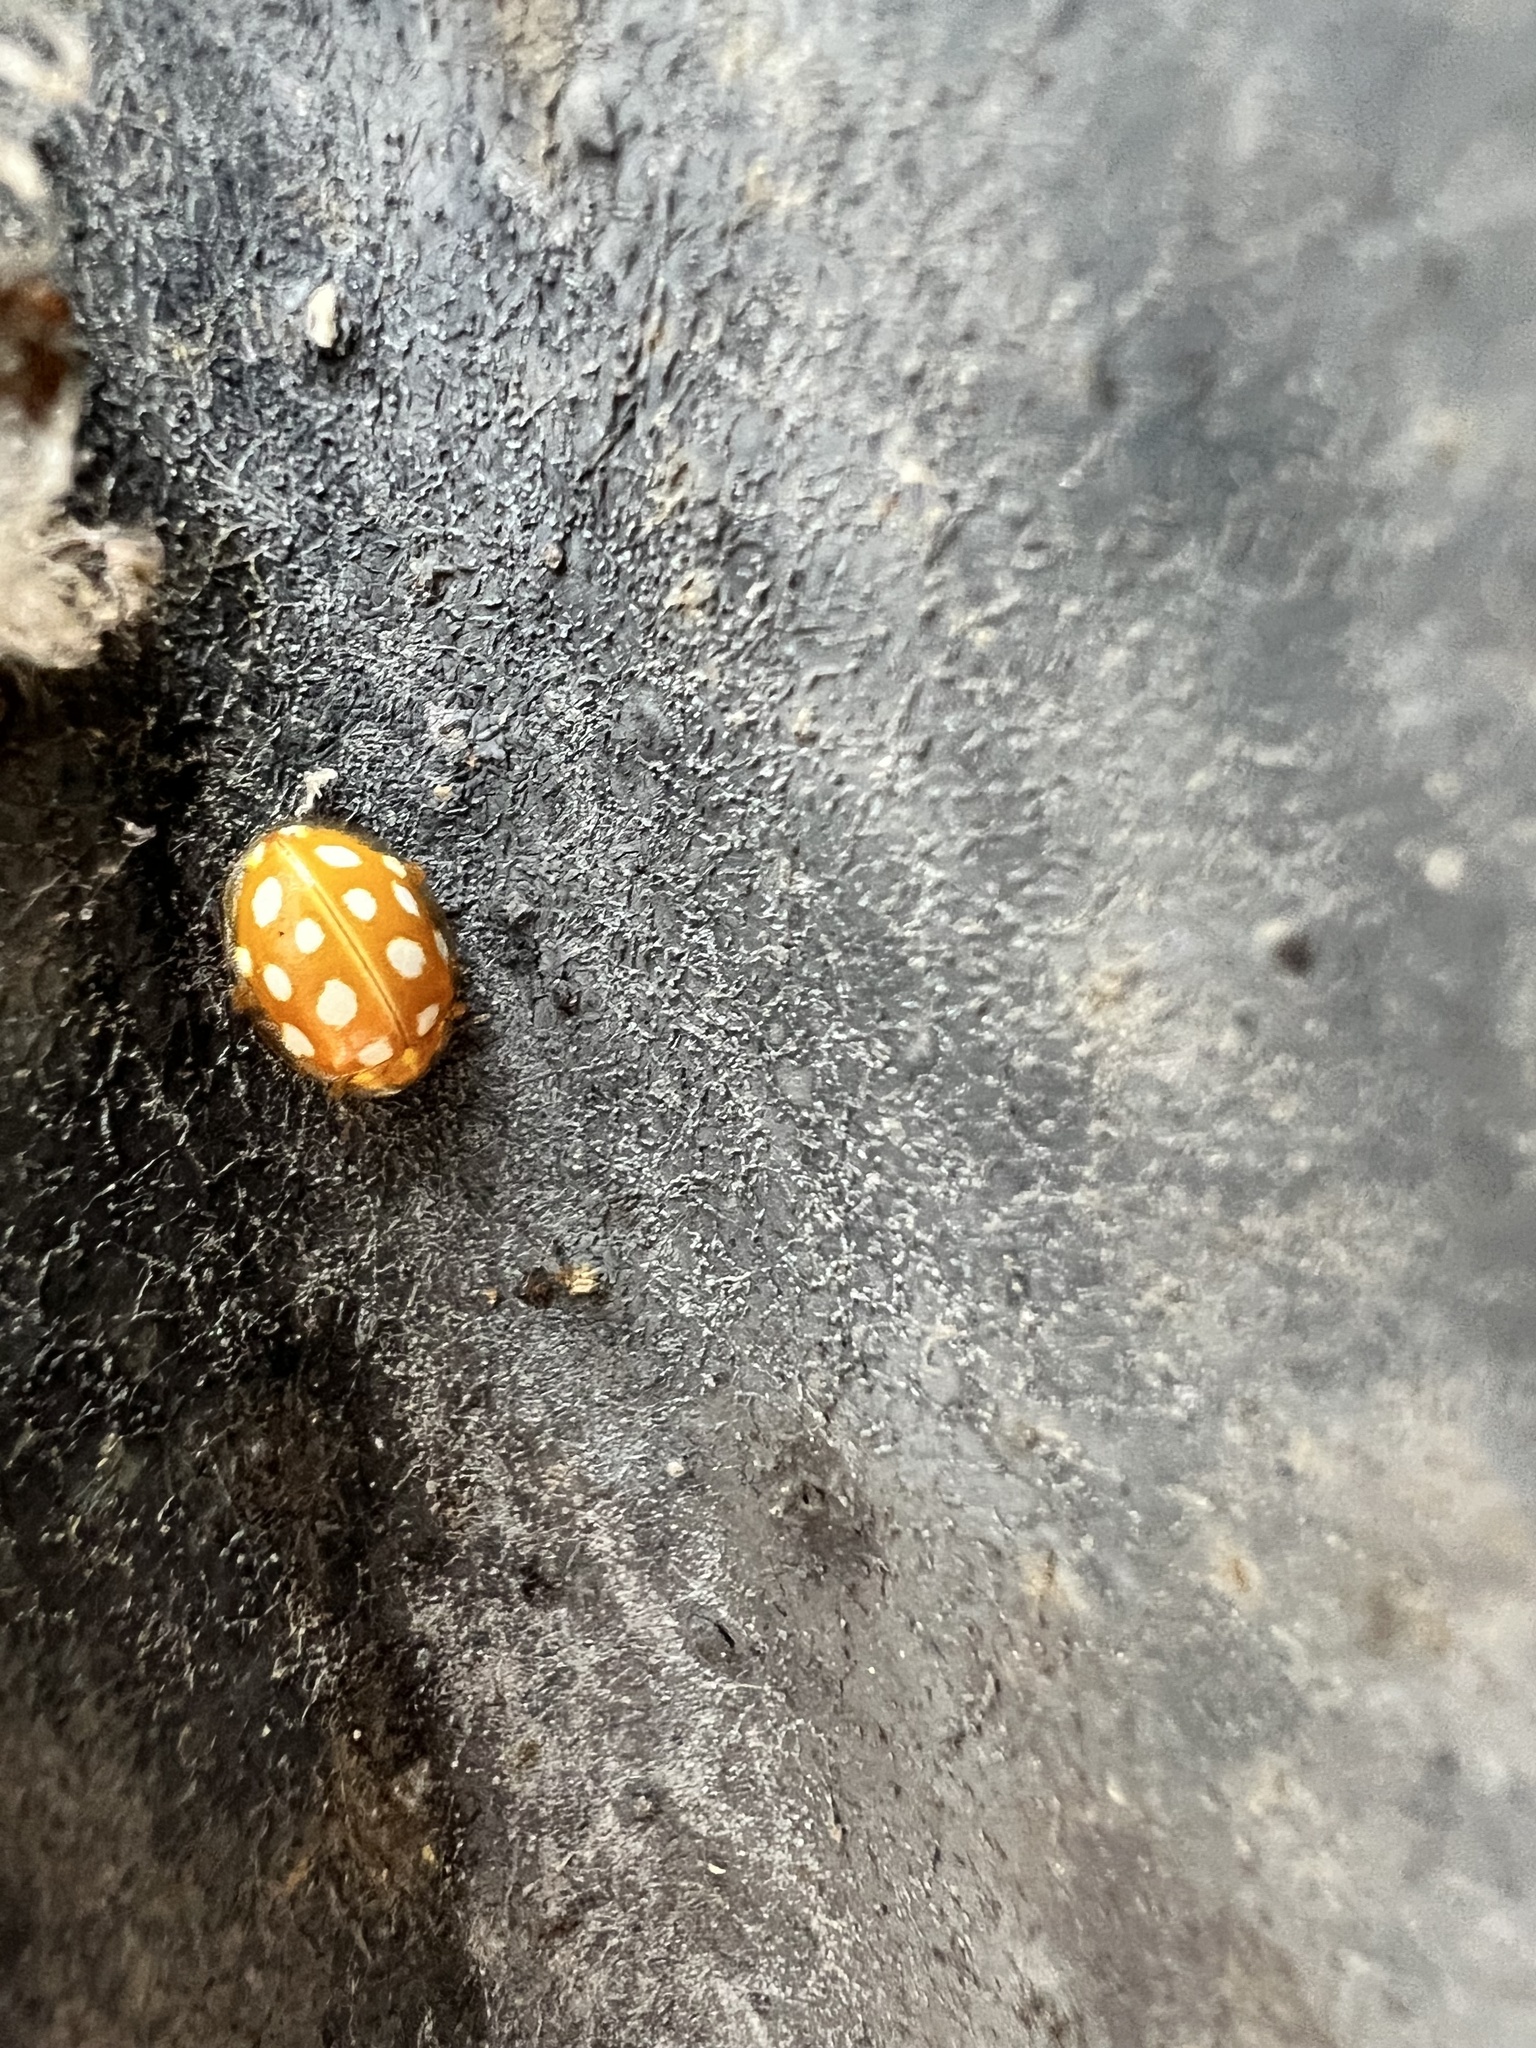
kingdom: Animalia
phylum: Arthropoda
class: Insecta
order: Coleoptera
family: Coccinellidae
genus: Halyzia
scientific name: Halyzia sedecimguttata
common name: Orange ladybird
